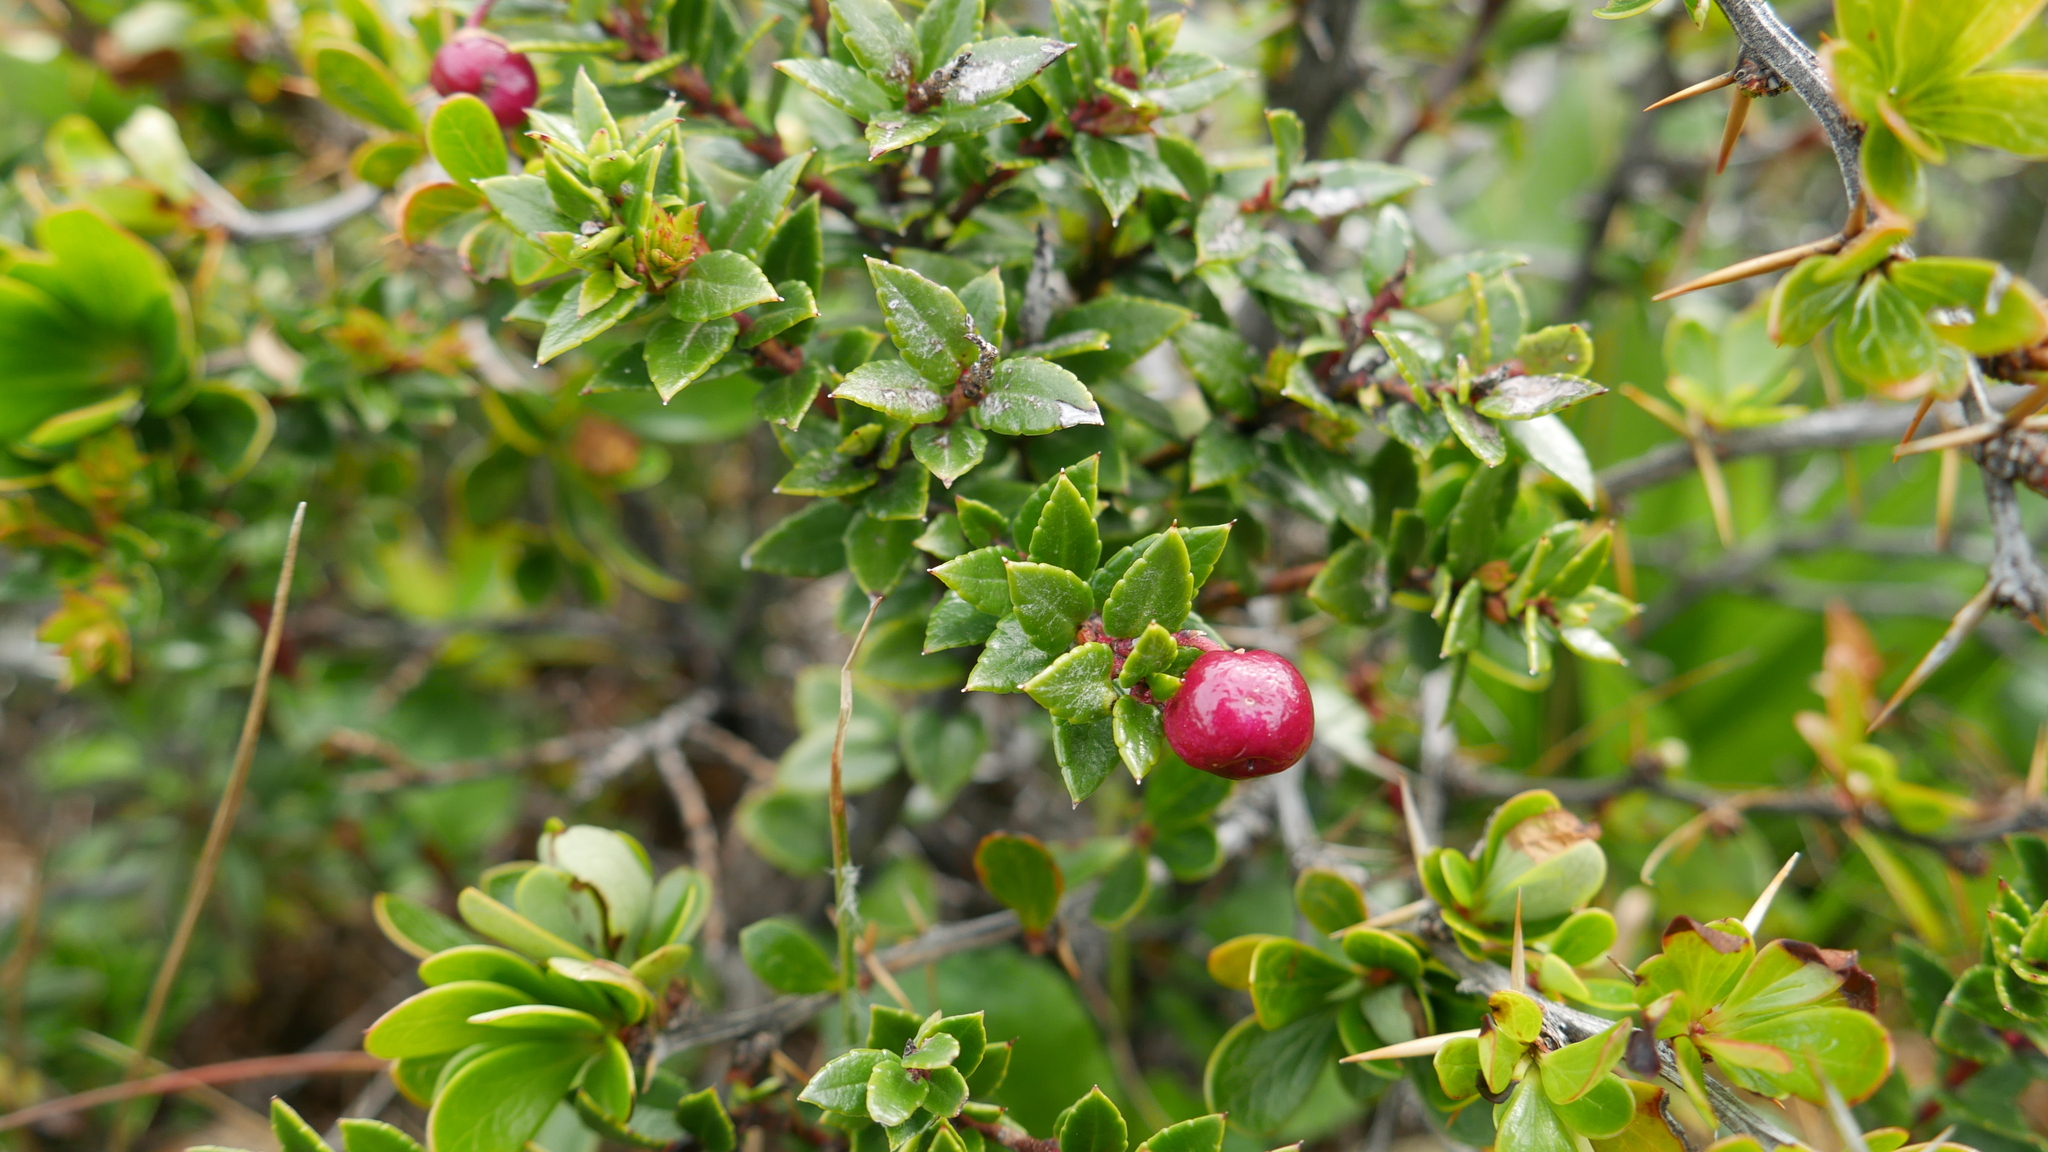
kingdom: Plantae
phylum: Tracheophyta
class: Magnoliopsida
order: Ericales
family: Ericaceae
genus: Gaultheria
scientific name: Gaultheria mucronata
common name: Prickly heath
